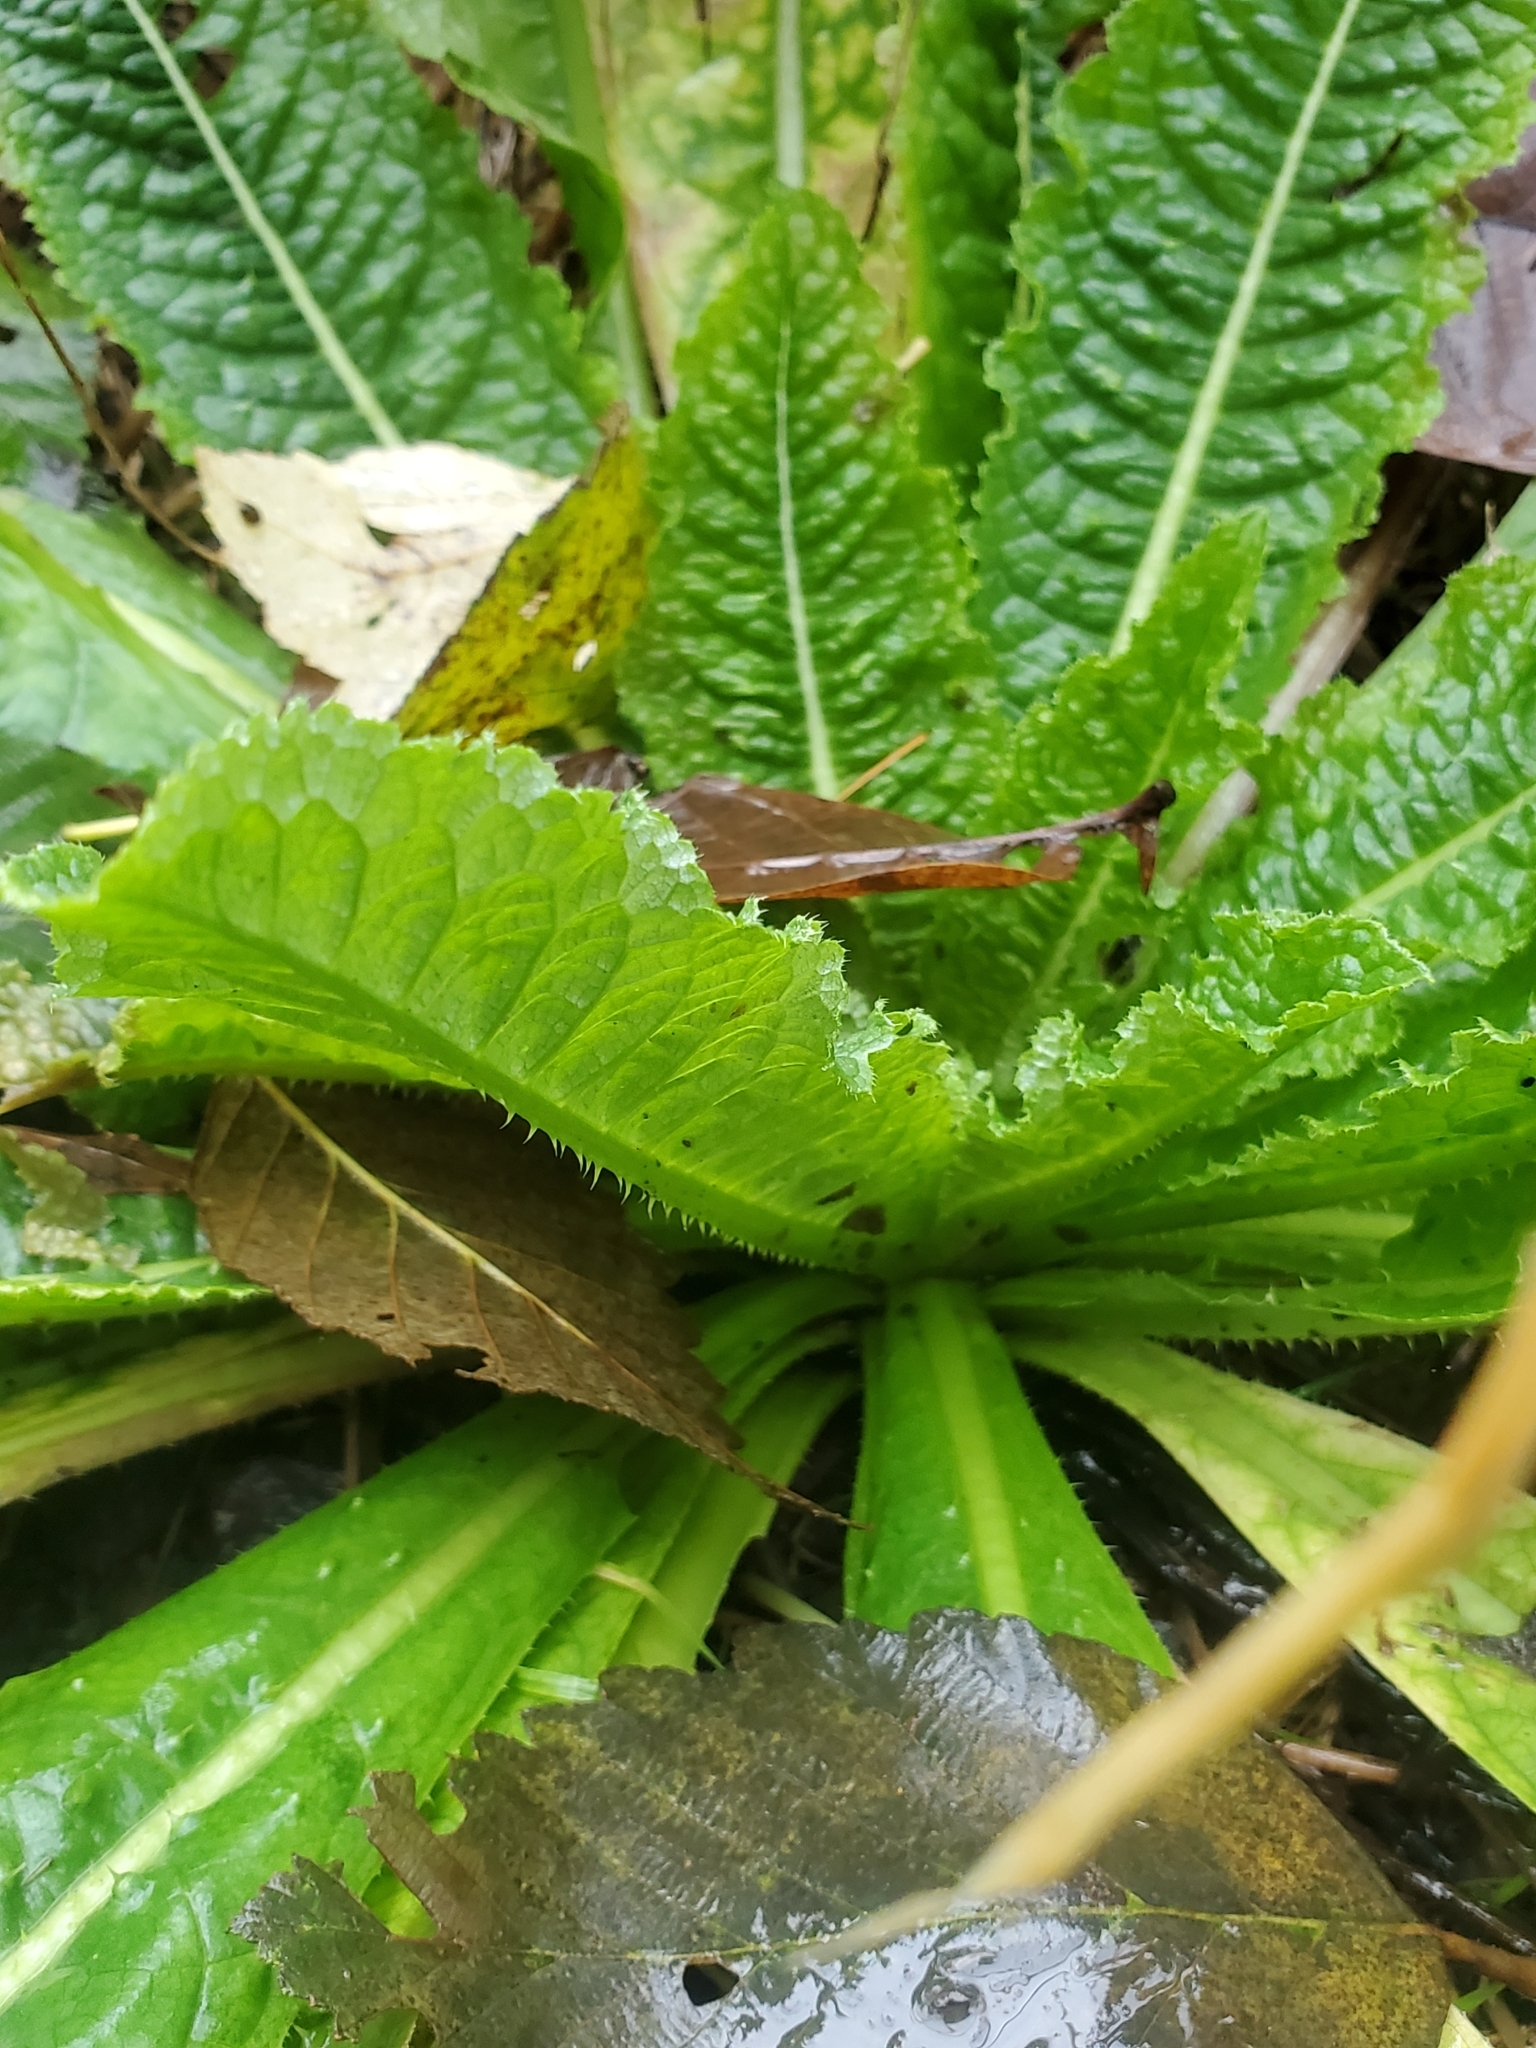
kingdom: Plantae
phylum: Tracheophyta
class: Magnoliopsida
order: Dipsacales
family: Caprifoliaceae
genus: Dipsacus
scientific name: Dipsacus fullonum
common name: Teasel
